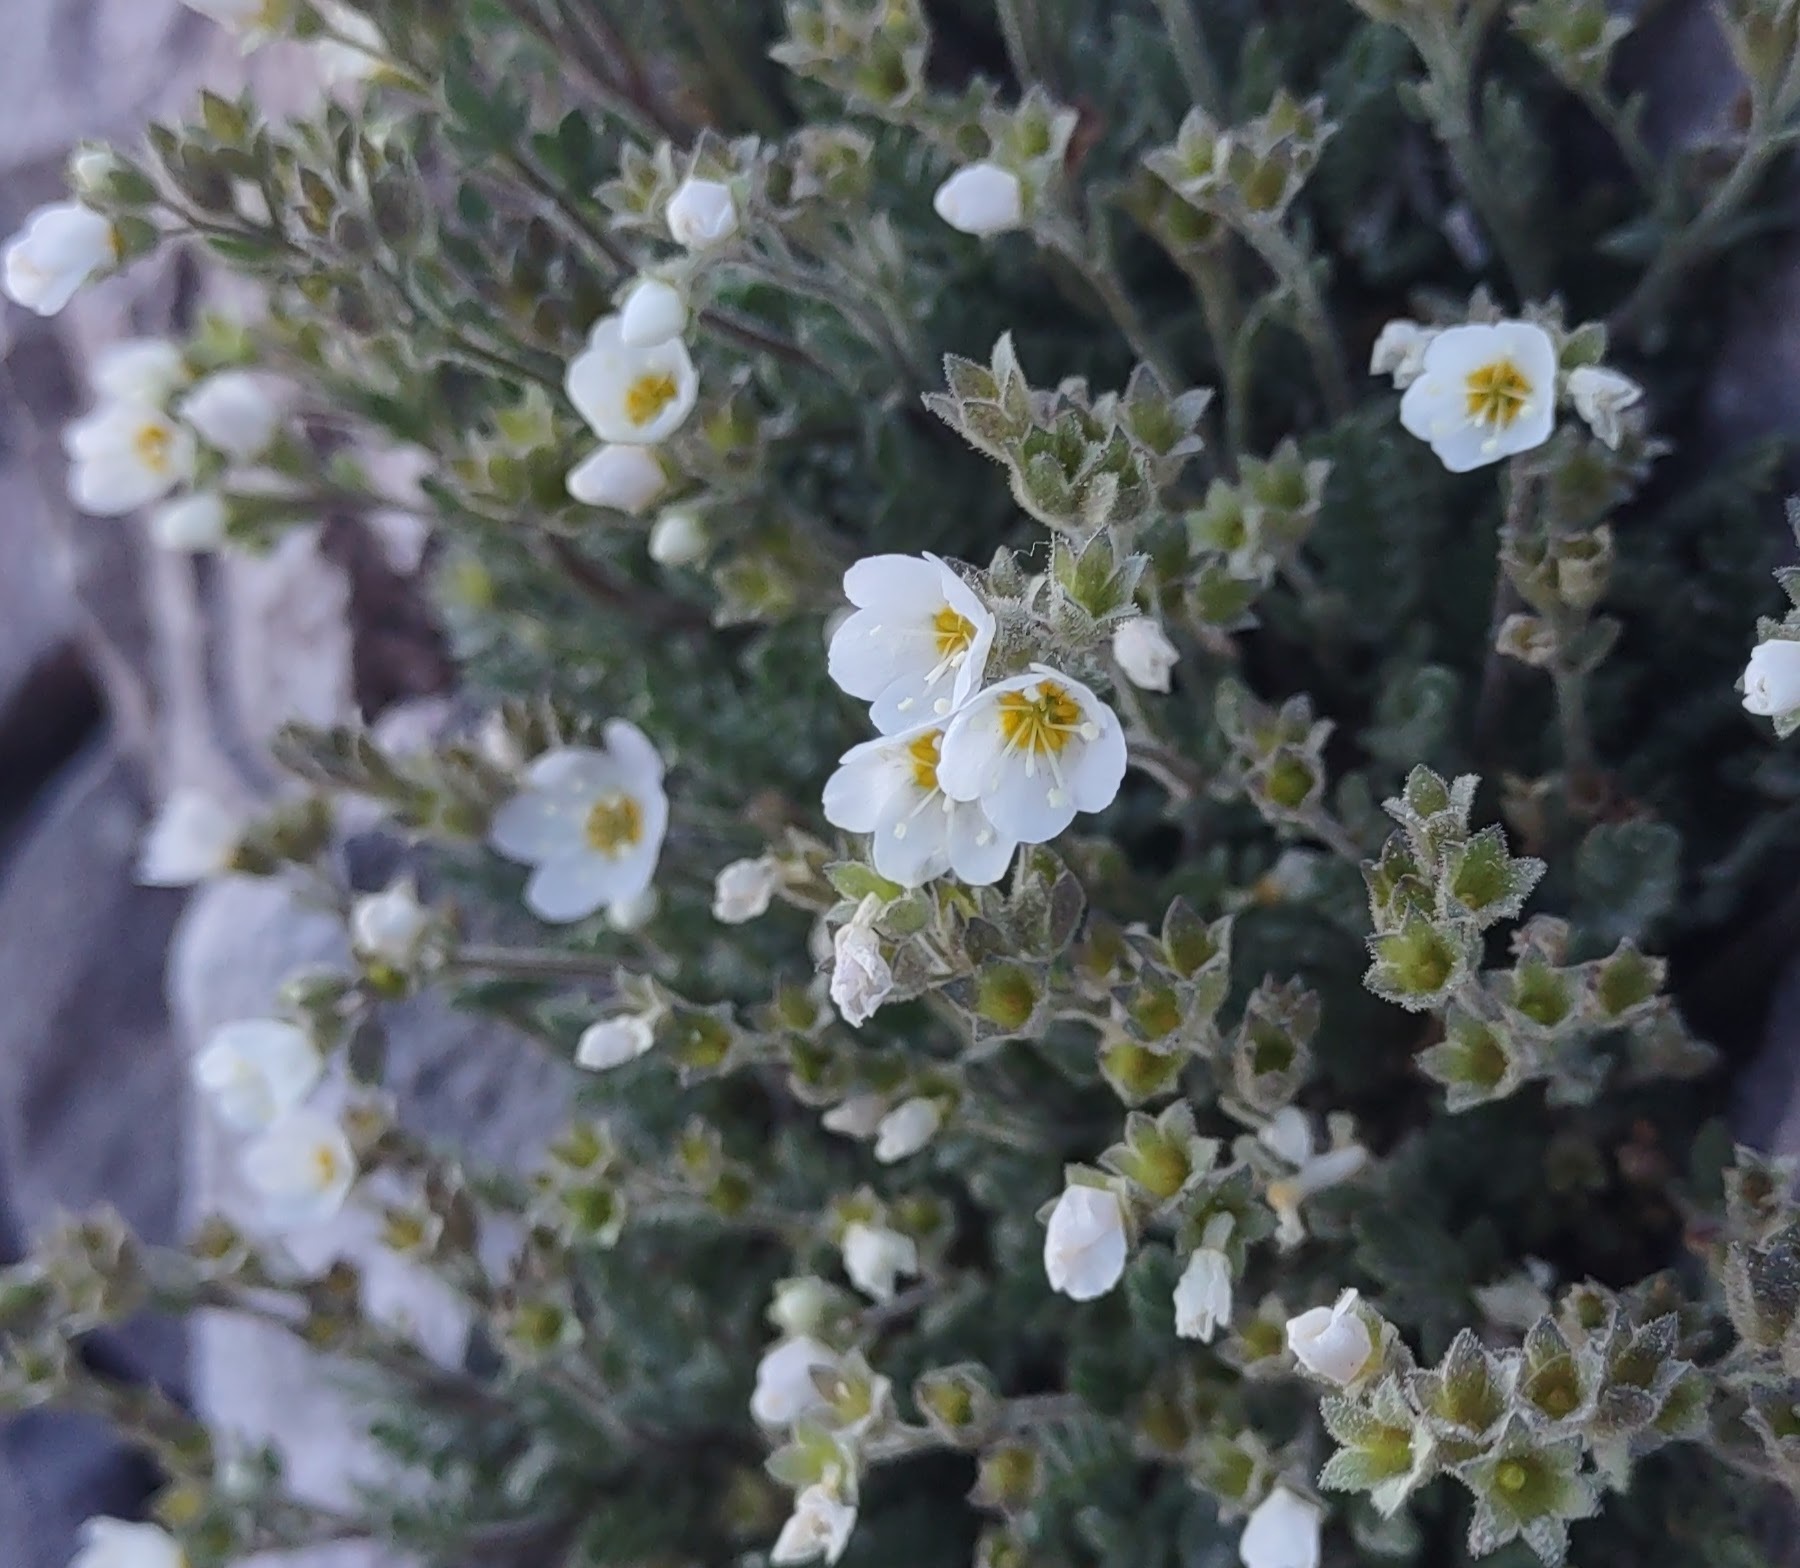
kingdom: Plantae
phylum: Tracheophyta
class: Magnoliopsida
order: Ericales
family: Polemoniaceae
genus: Polemonium
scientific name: Polemonium pulcherrimum
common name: Short jacob's-ladder
